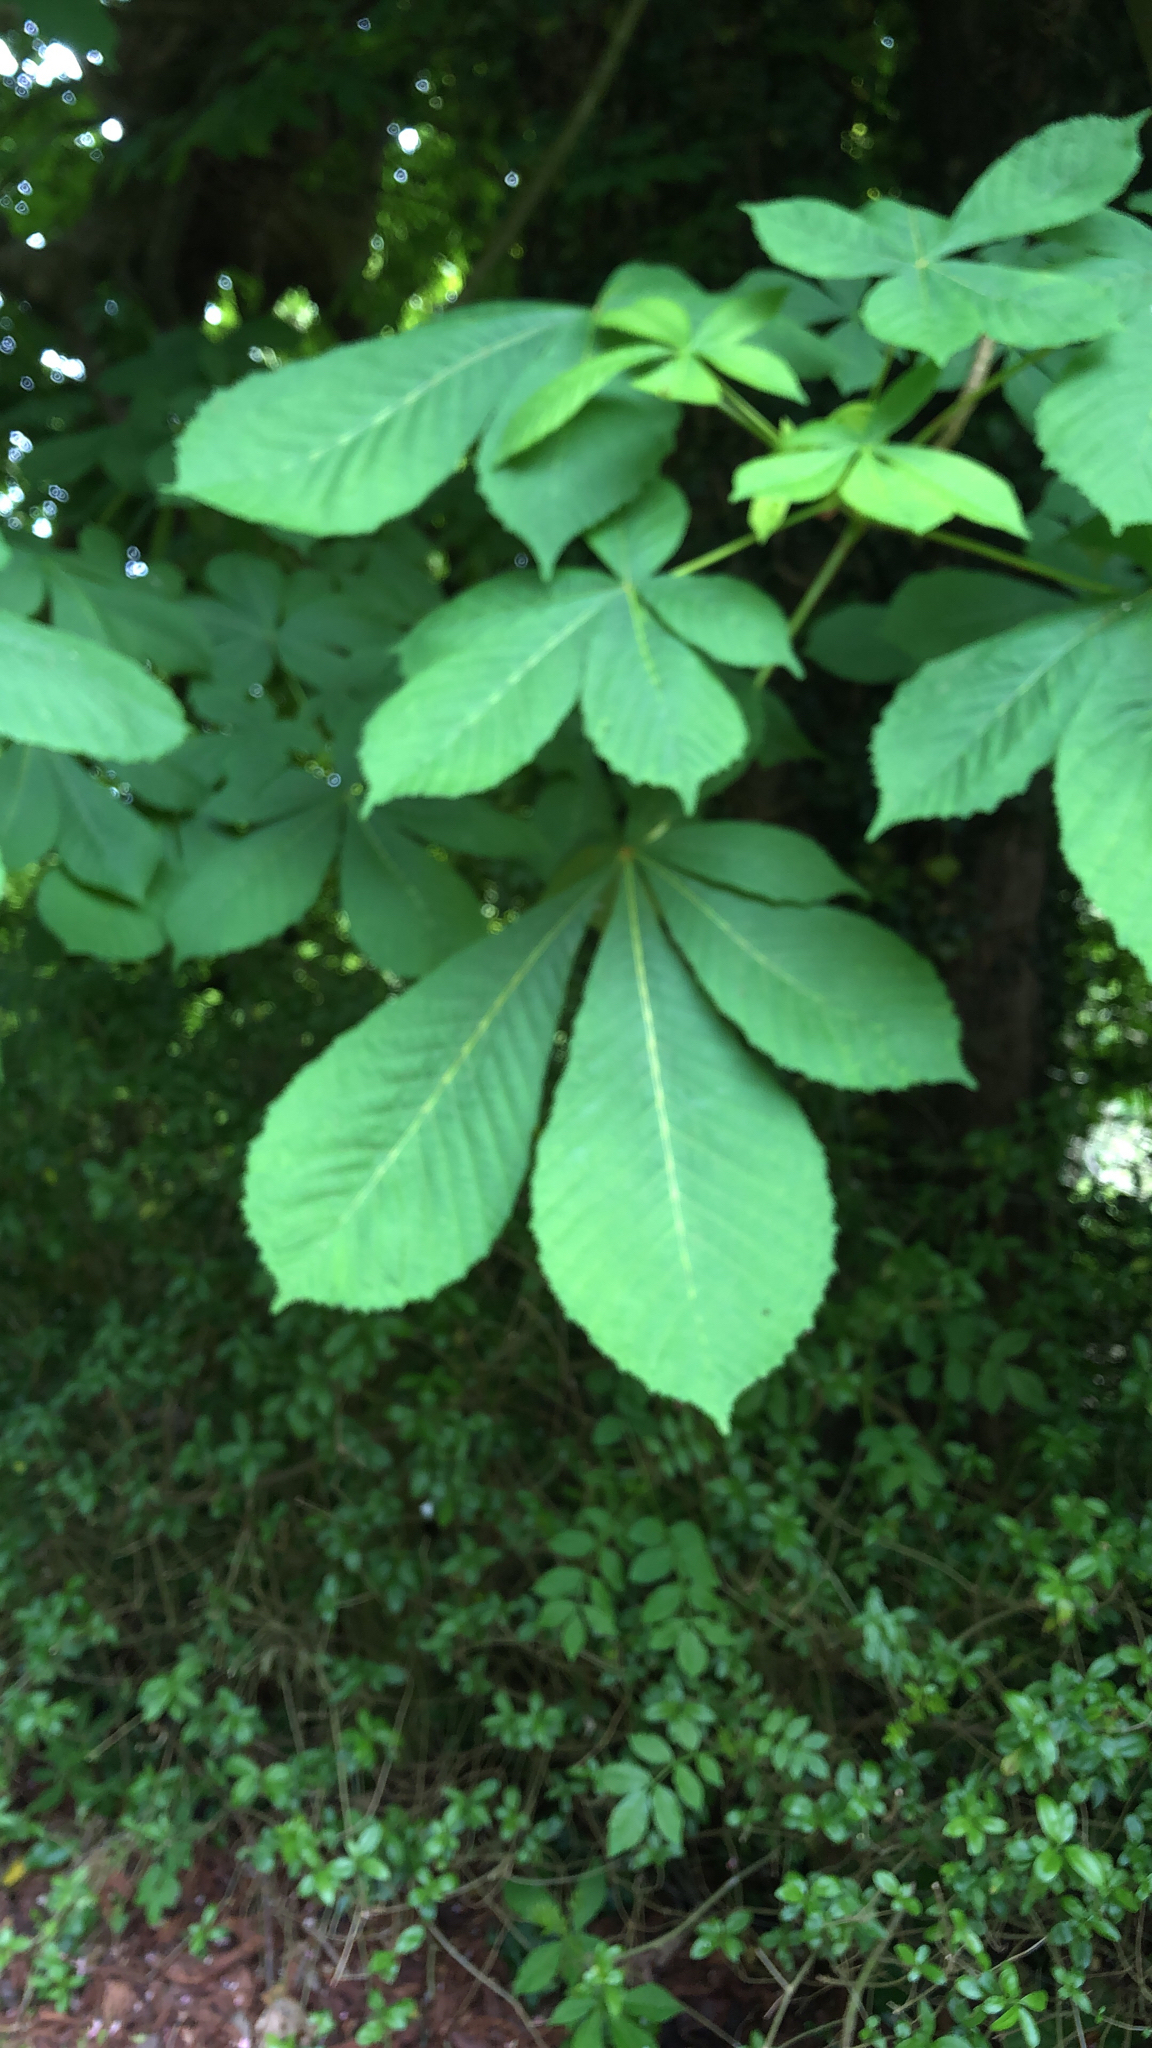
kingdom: Plantae
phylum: Tracheophyta
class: Magnoliopsida
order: Sapindales
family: Sapindaceae
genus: Aesculus
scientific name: Aesculus hippocastanum
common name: Horse-chestnut
